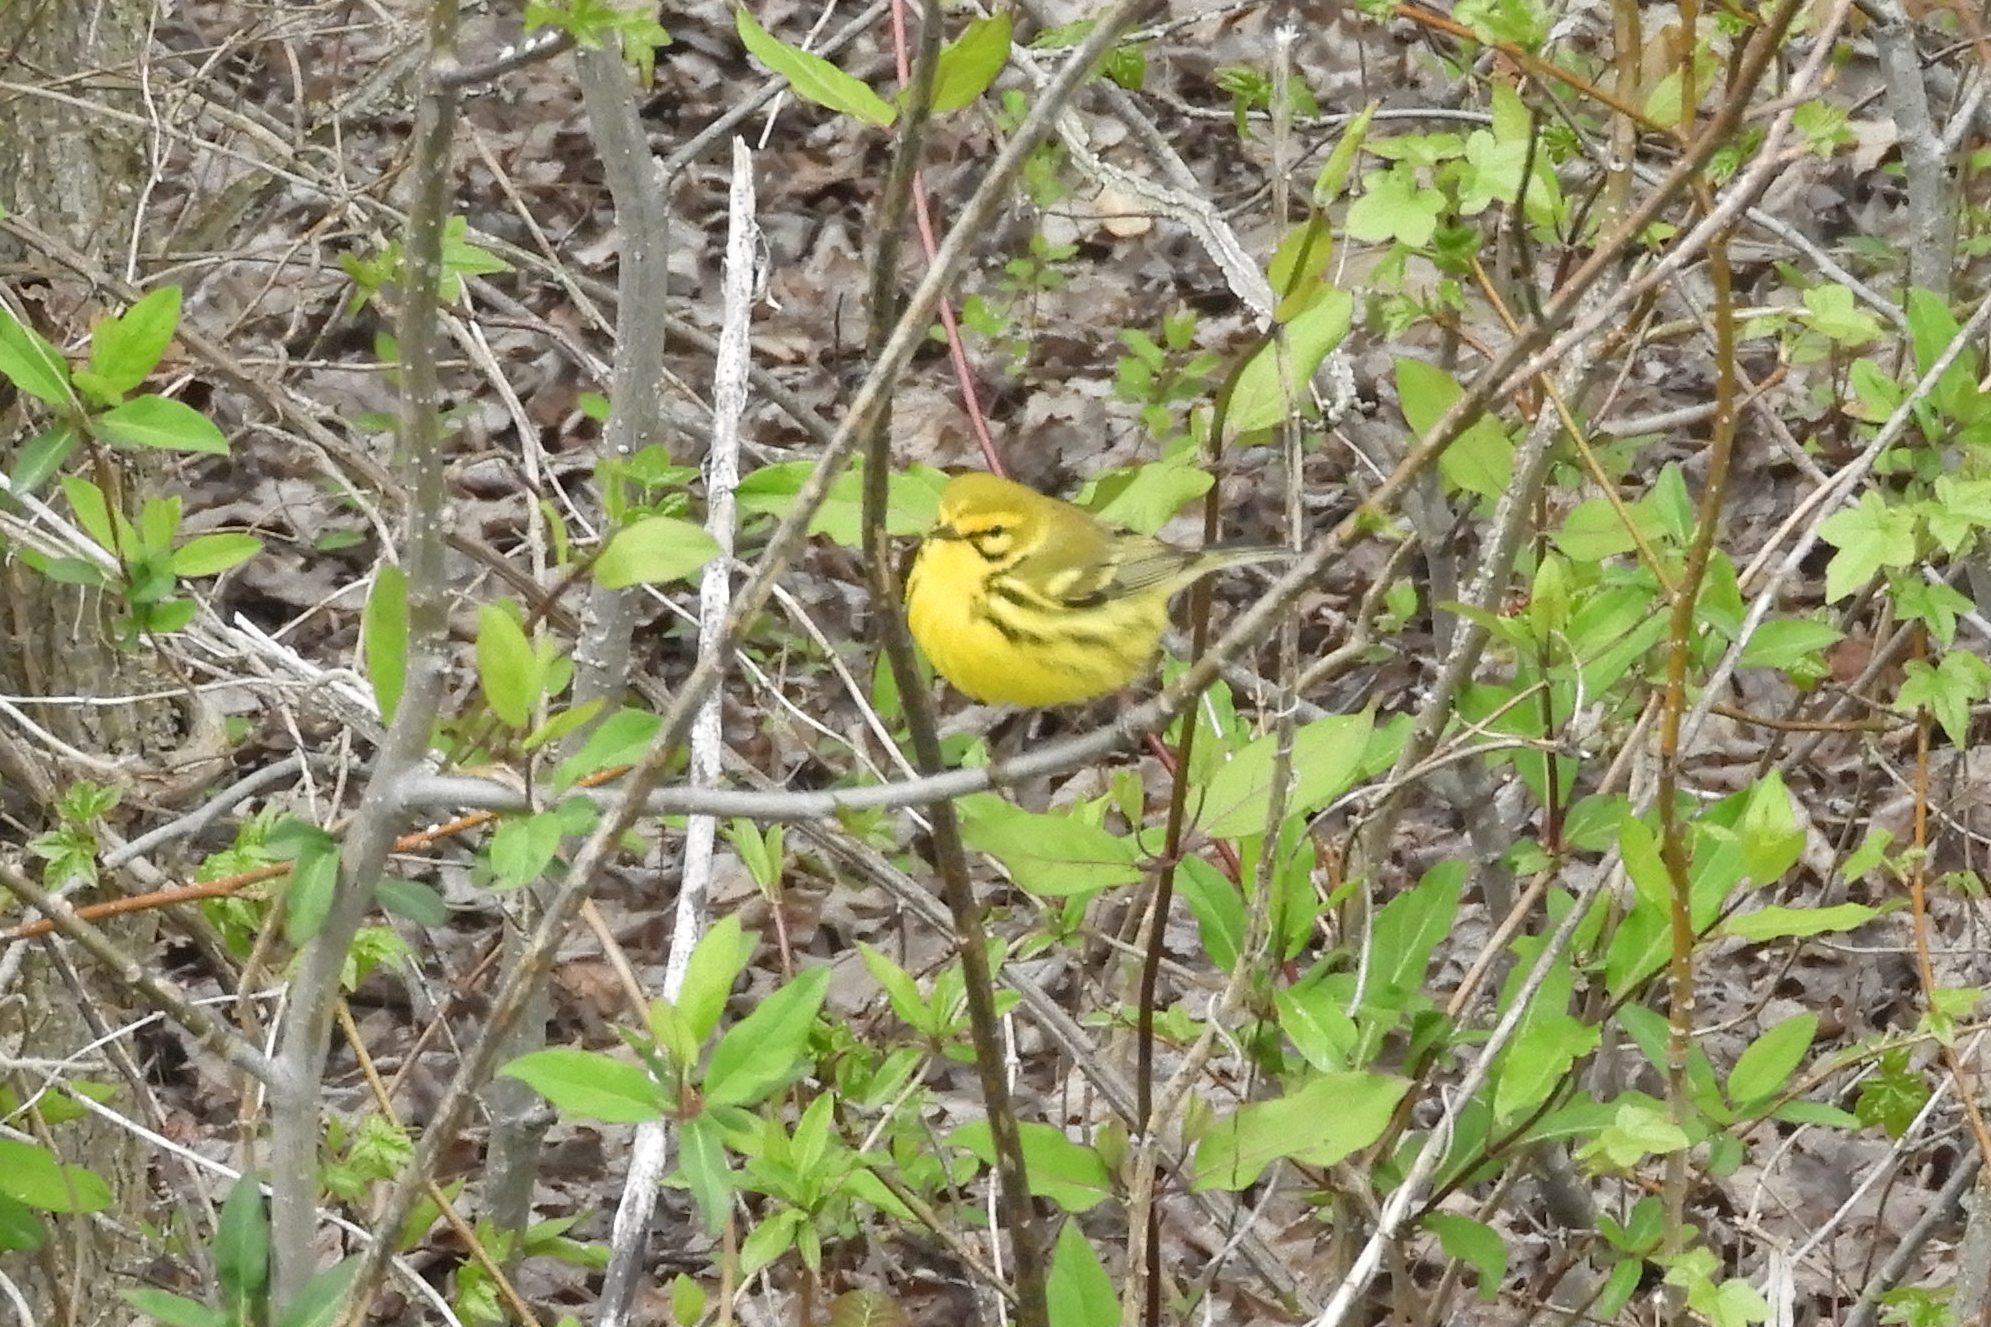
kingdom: Animalia
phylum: Chordata
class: Aves
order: Passeriformes
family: Parulidae
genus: Setophaga
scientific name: Setophaga discolor
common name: Prairie warbler
